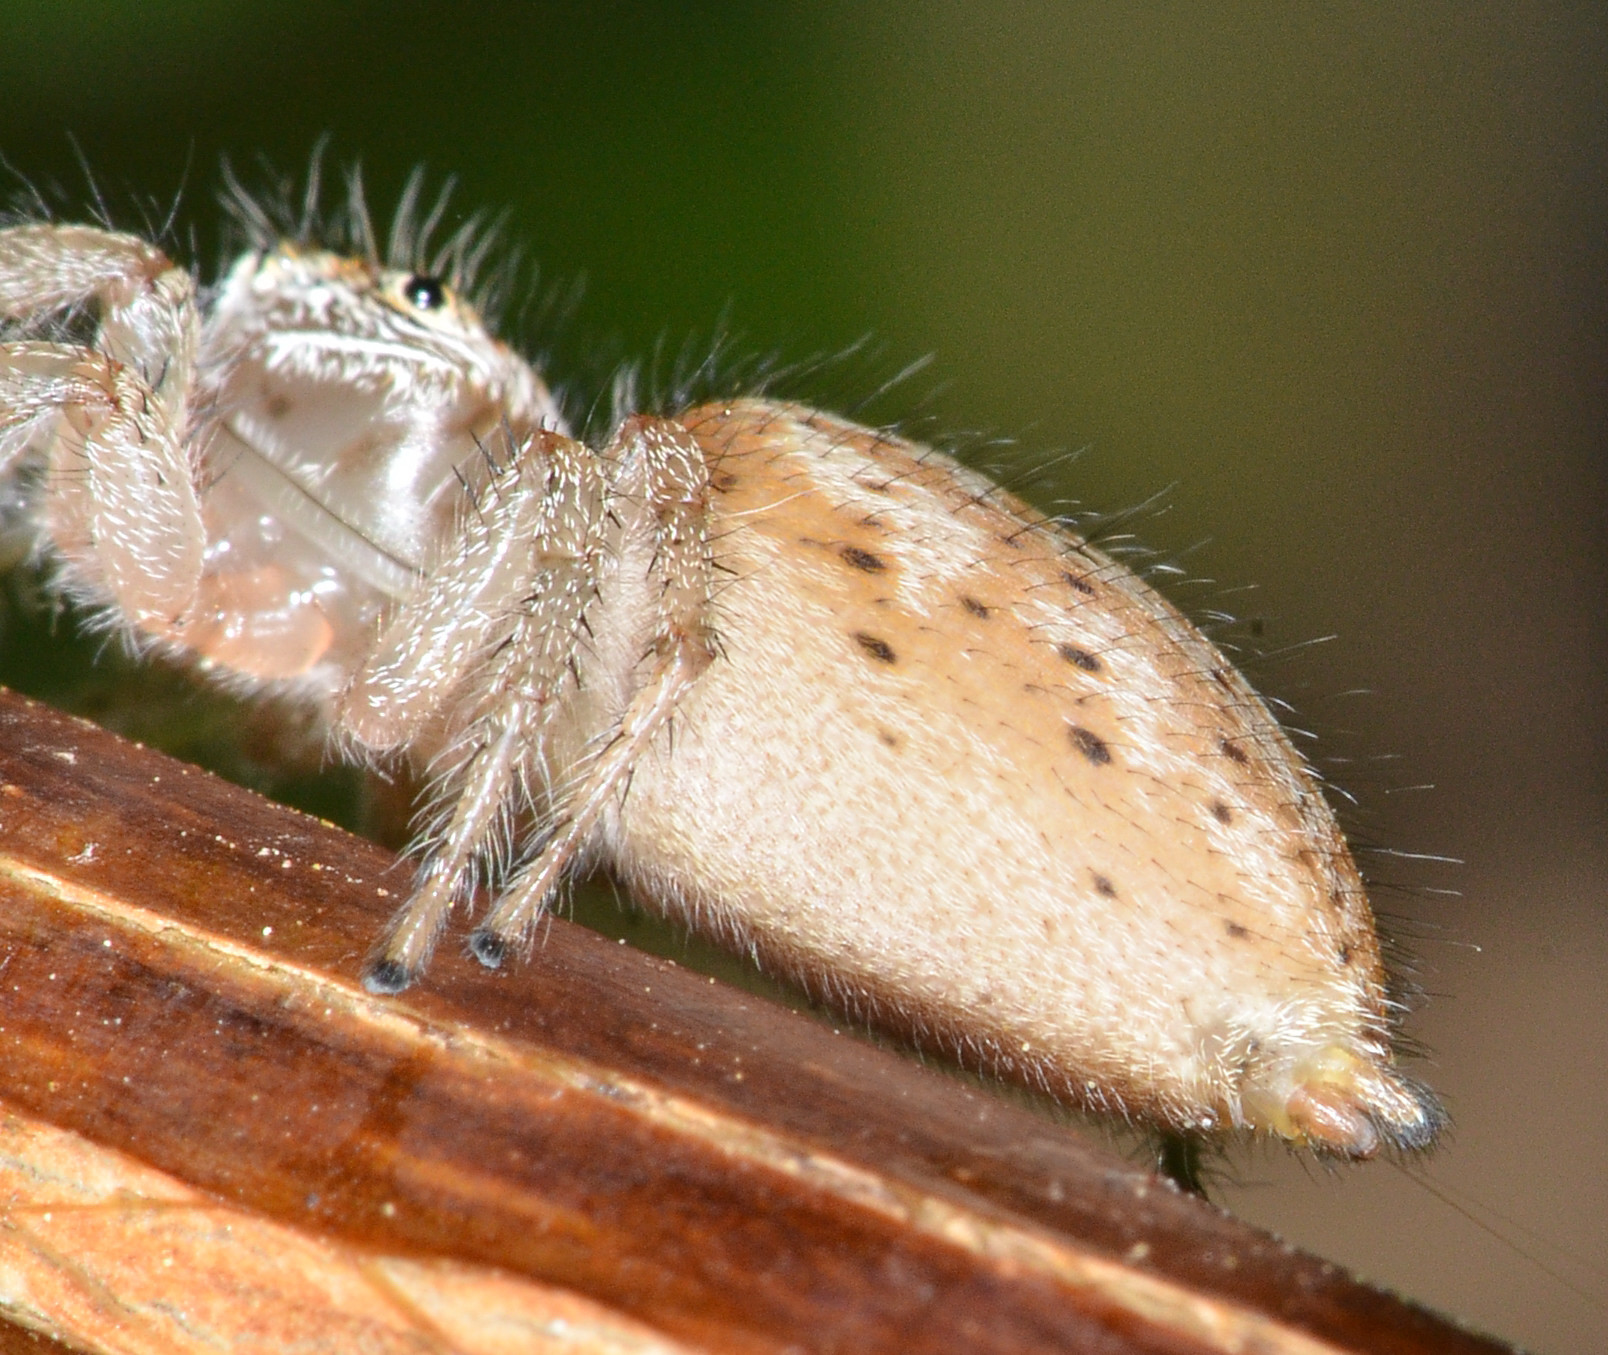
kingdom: Animalia
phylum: Arthropoda
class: Arachnida
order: Araneae
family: Salticidae
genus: Colonus
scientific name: Colonus hesperus
